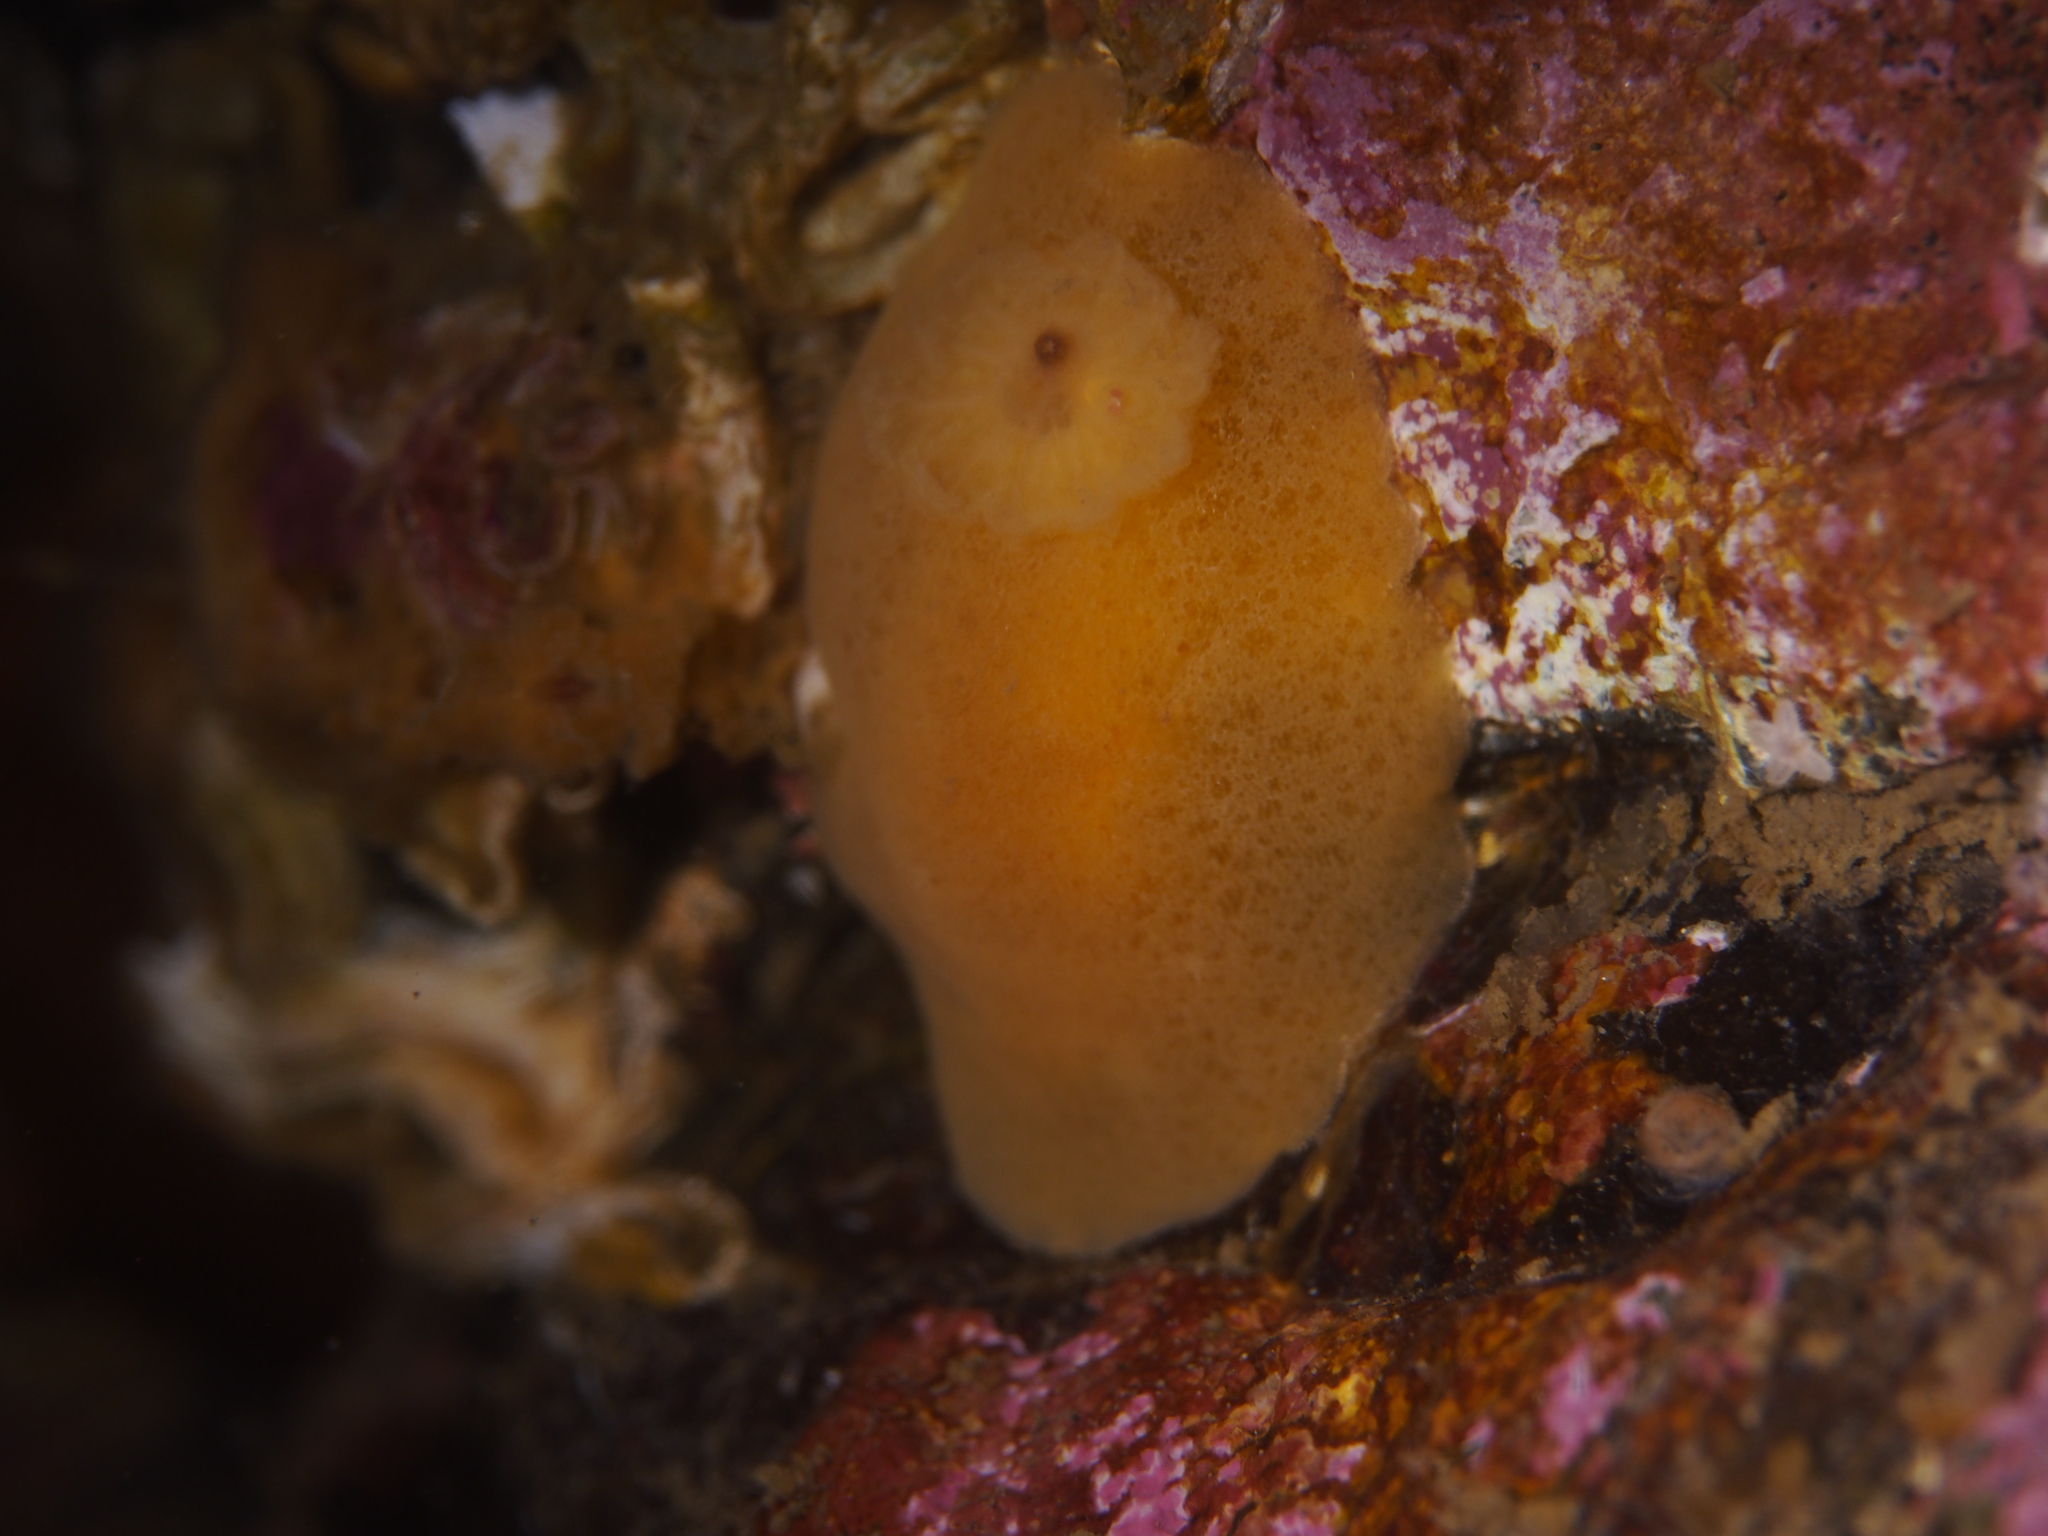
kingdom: Animalia
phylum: Mollusca
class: Gastropoda
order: Nudibranchia
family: Discodorididae
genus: Jorunna
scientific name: Jorunna tomentosa
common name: Grey sea slug
